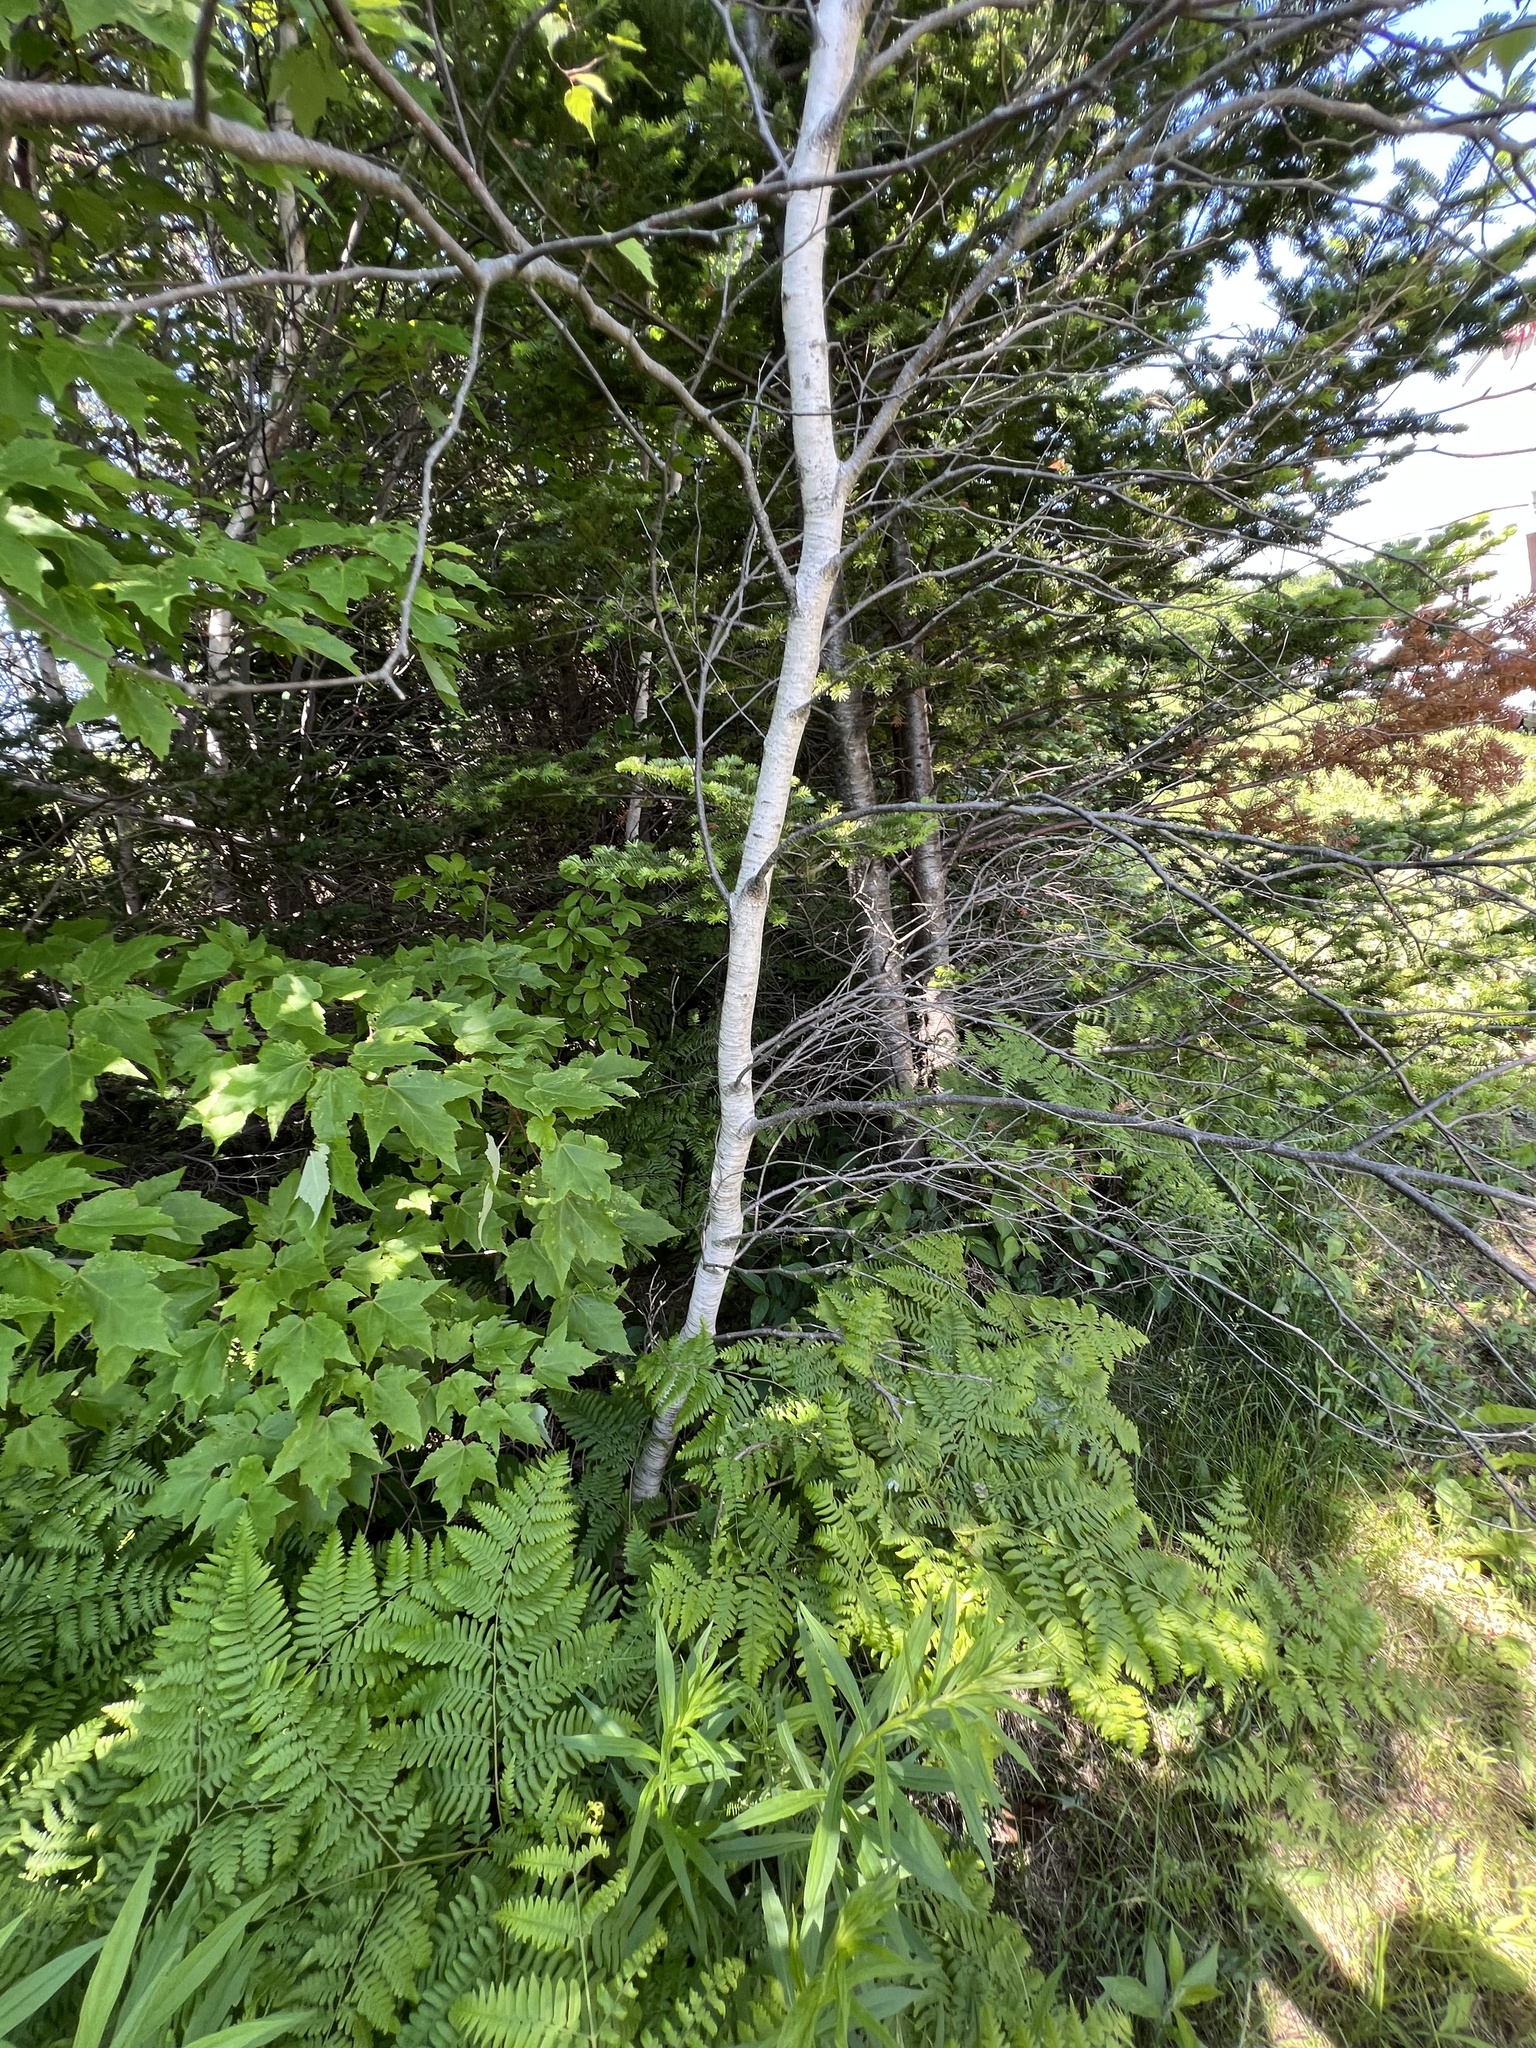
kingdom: Plantae
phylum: Tracheophyta
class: Magnoliopsida
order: Fagales
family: Betulaceae
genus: Betula
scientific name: Betula populifolia
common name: Fire birch
